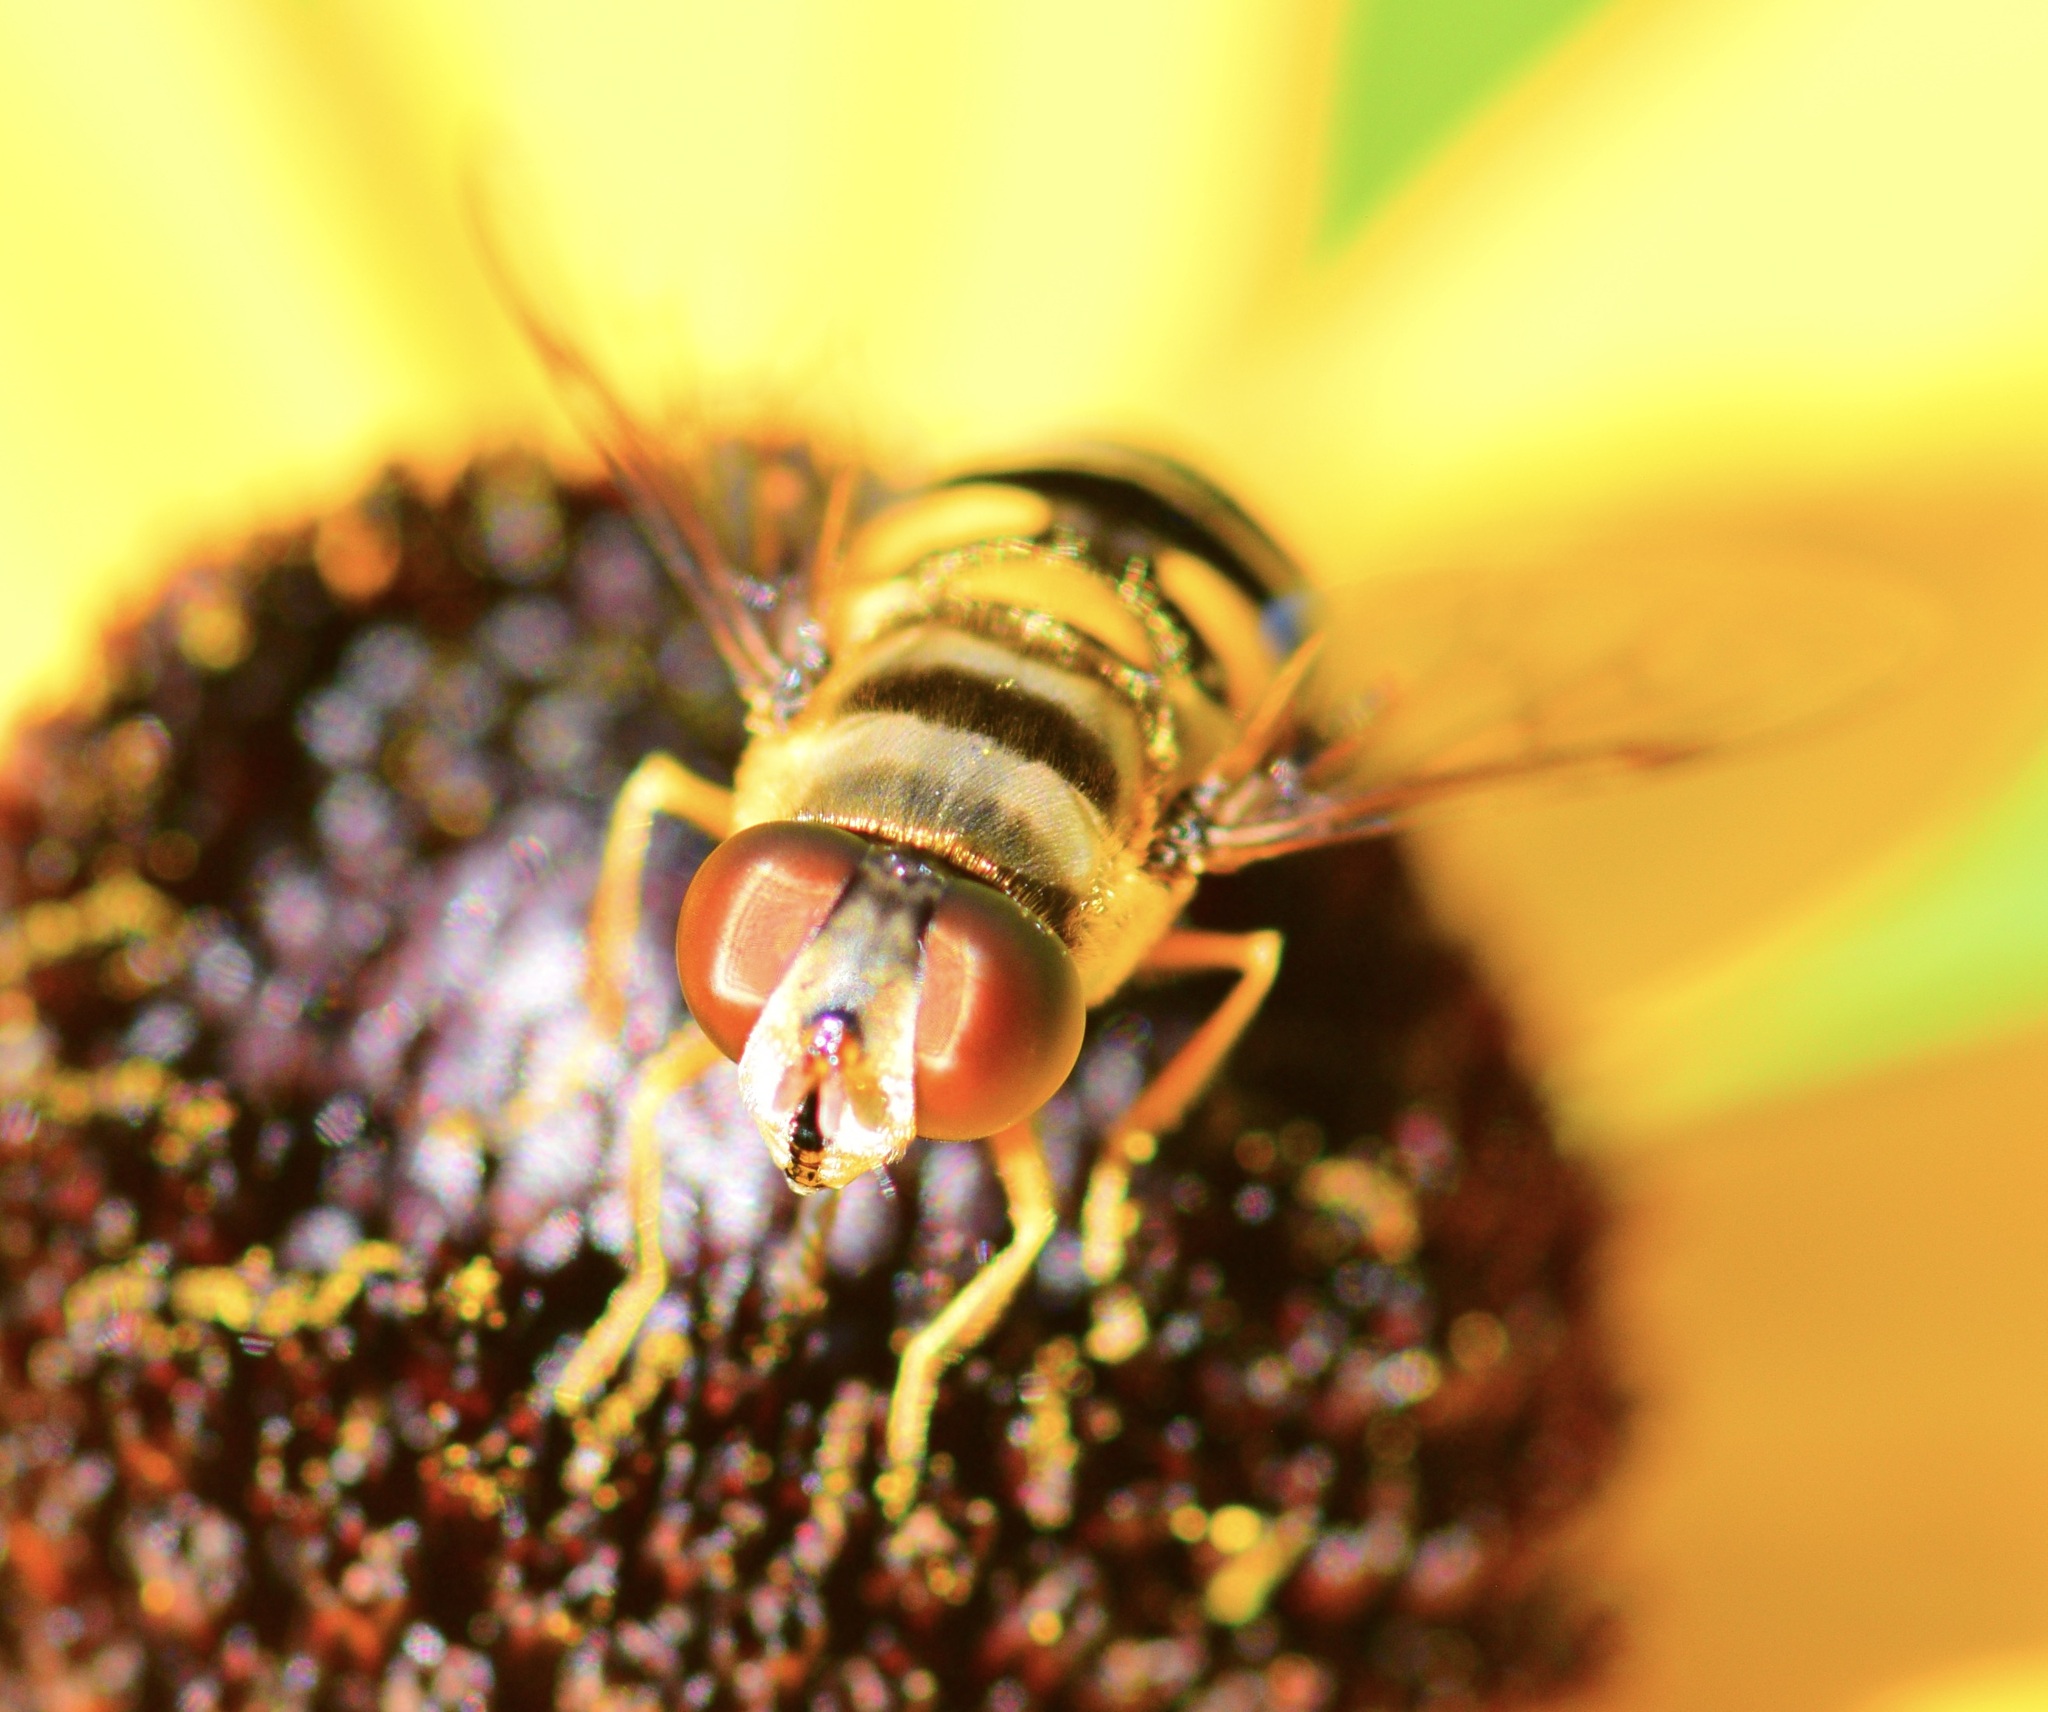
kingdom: Animalia
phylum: Arthropoda
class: Insecta
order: Diptera
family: Syrphidae
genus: Eristalis
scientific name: Eristalis transversa
